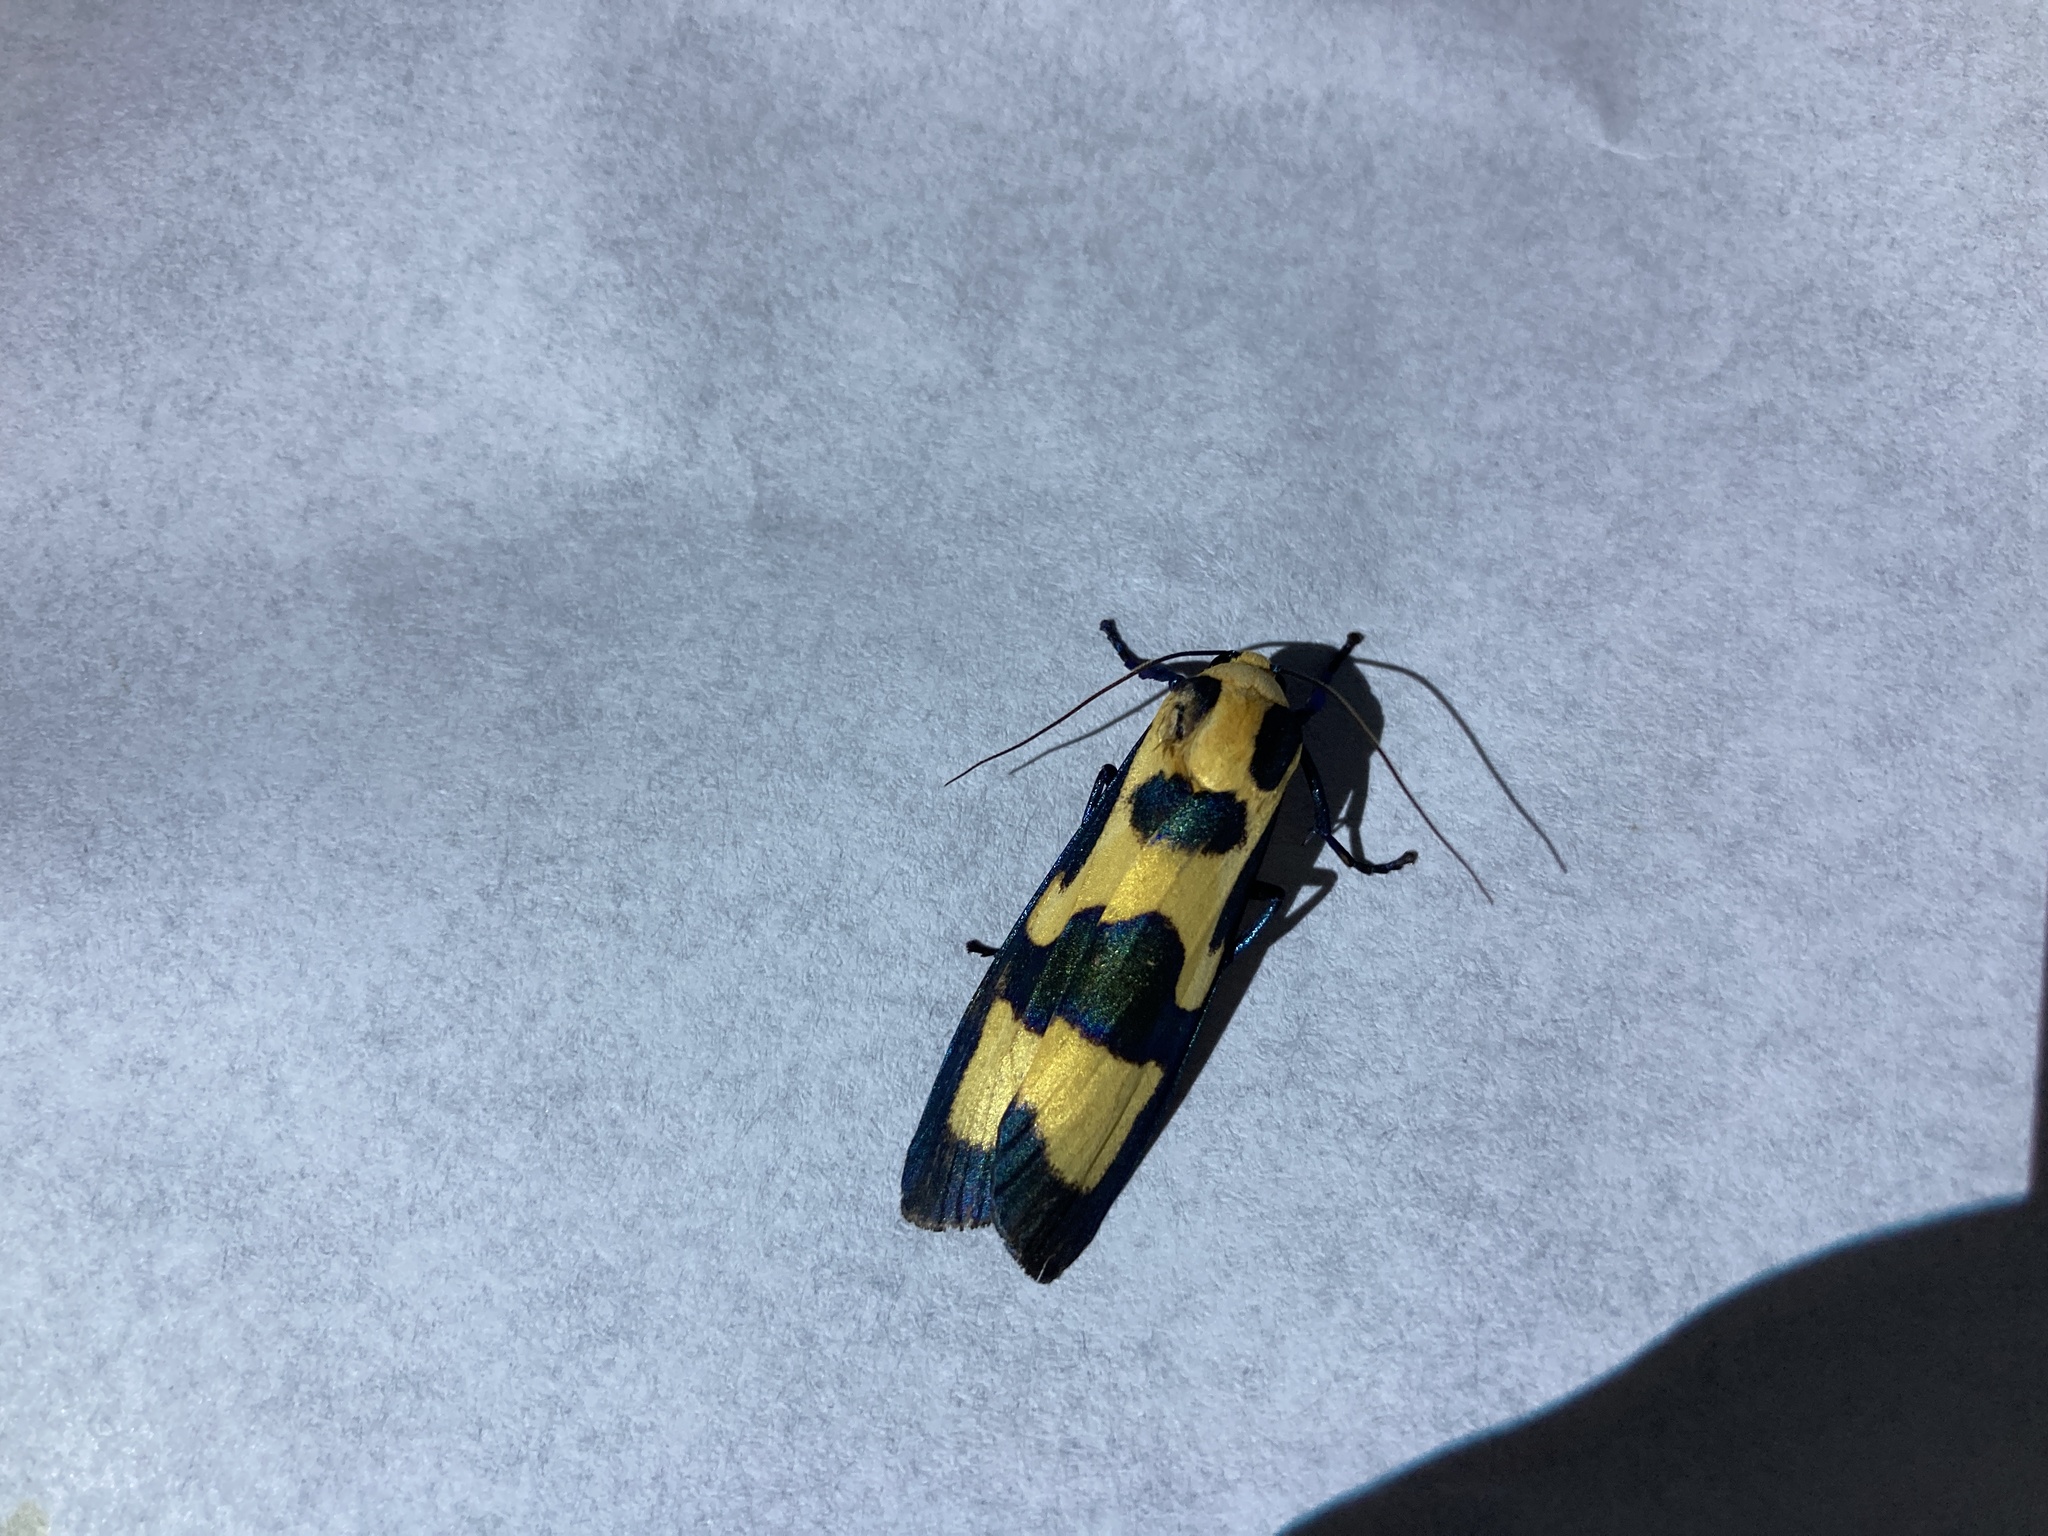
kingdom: Animalia
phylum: Arthropoda
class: Insecta
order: Lepidoptera
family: Erebidae
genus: Chrysaeglia
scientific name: Chrysaeglia magnifica
